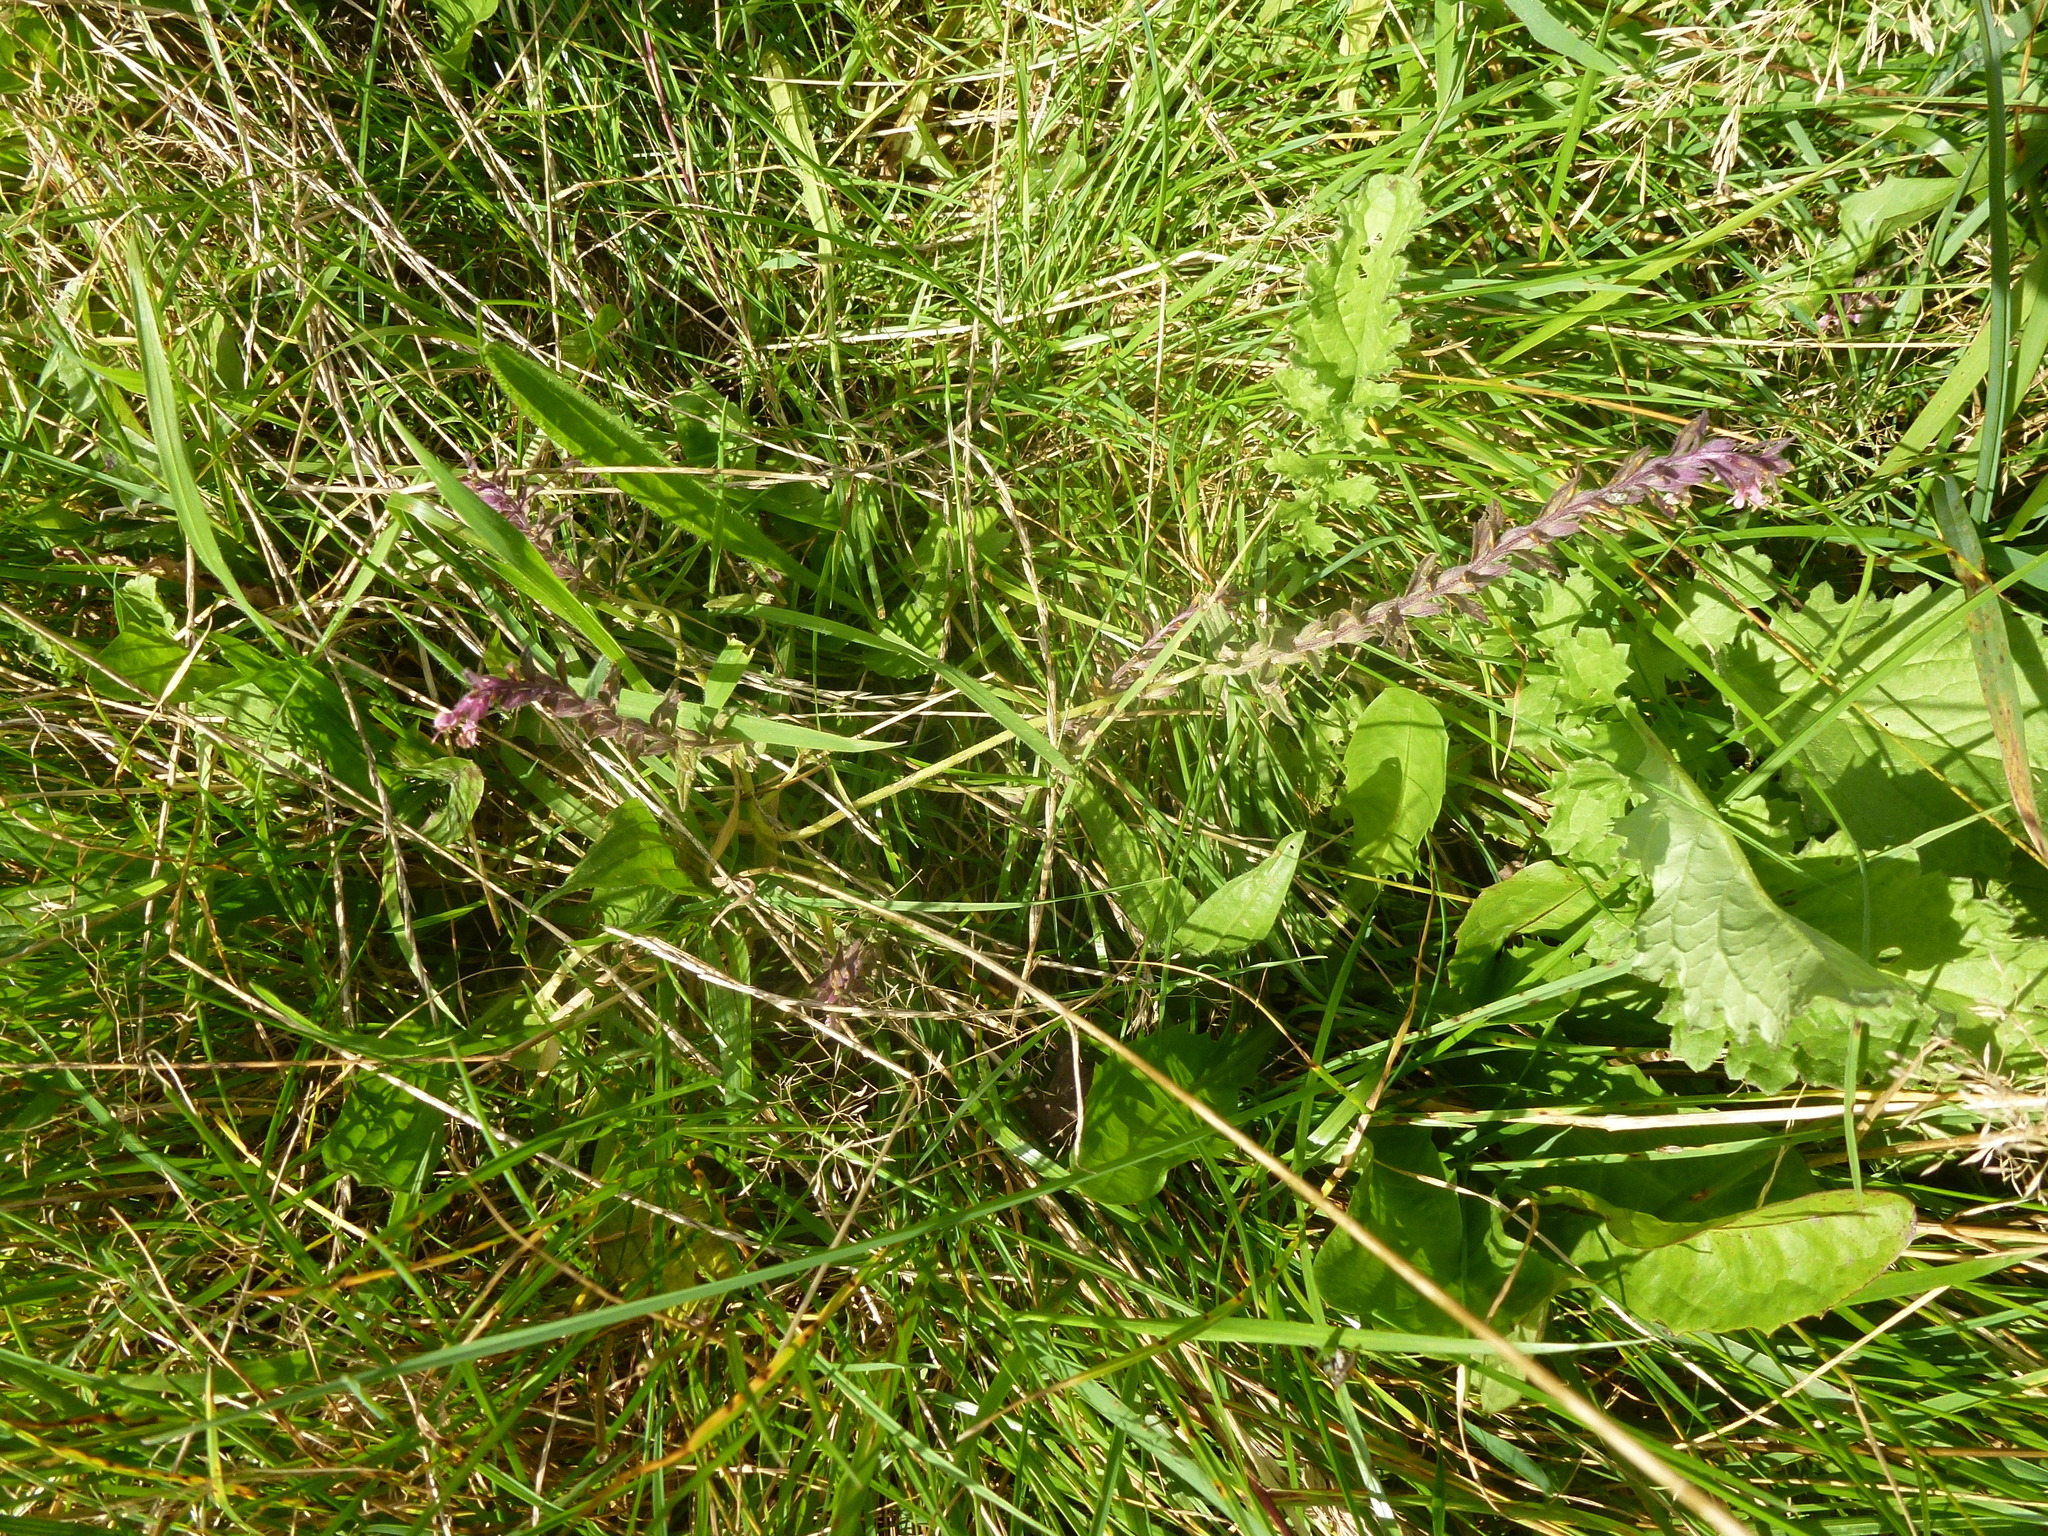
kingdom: Plantae
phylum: Tracheophyta
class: Magnoliopsida
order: Lamiales
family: Orobanchaceae
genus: Odontites
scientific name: Odontites vulgaris
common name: Broomrape
